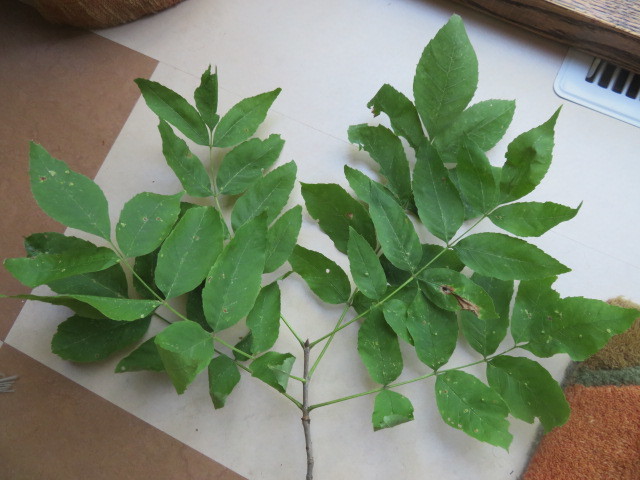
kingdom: Fungi
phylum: Basidiomycota
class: Agaricomycetes
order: Boletales
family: Boletinellaceae
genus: Boletinellus
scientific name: Boletinellus merulioides
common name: Ash tree bolete
